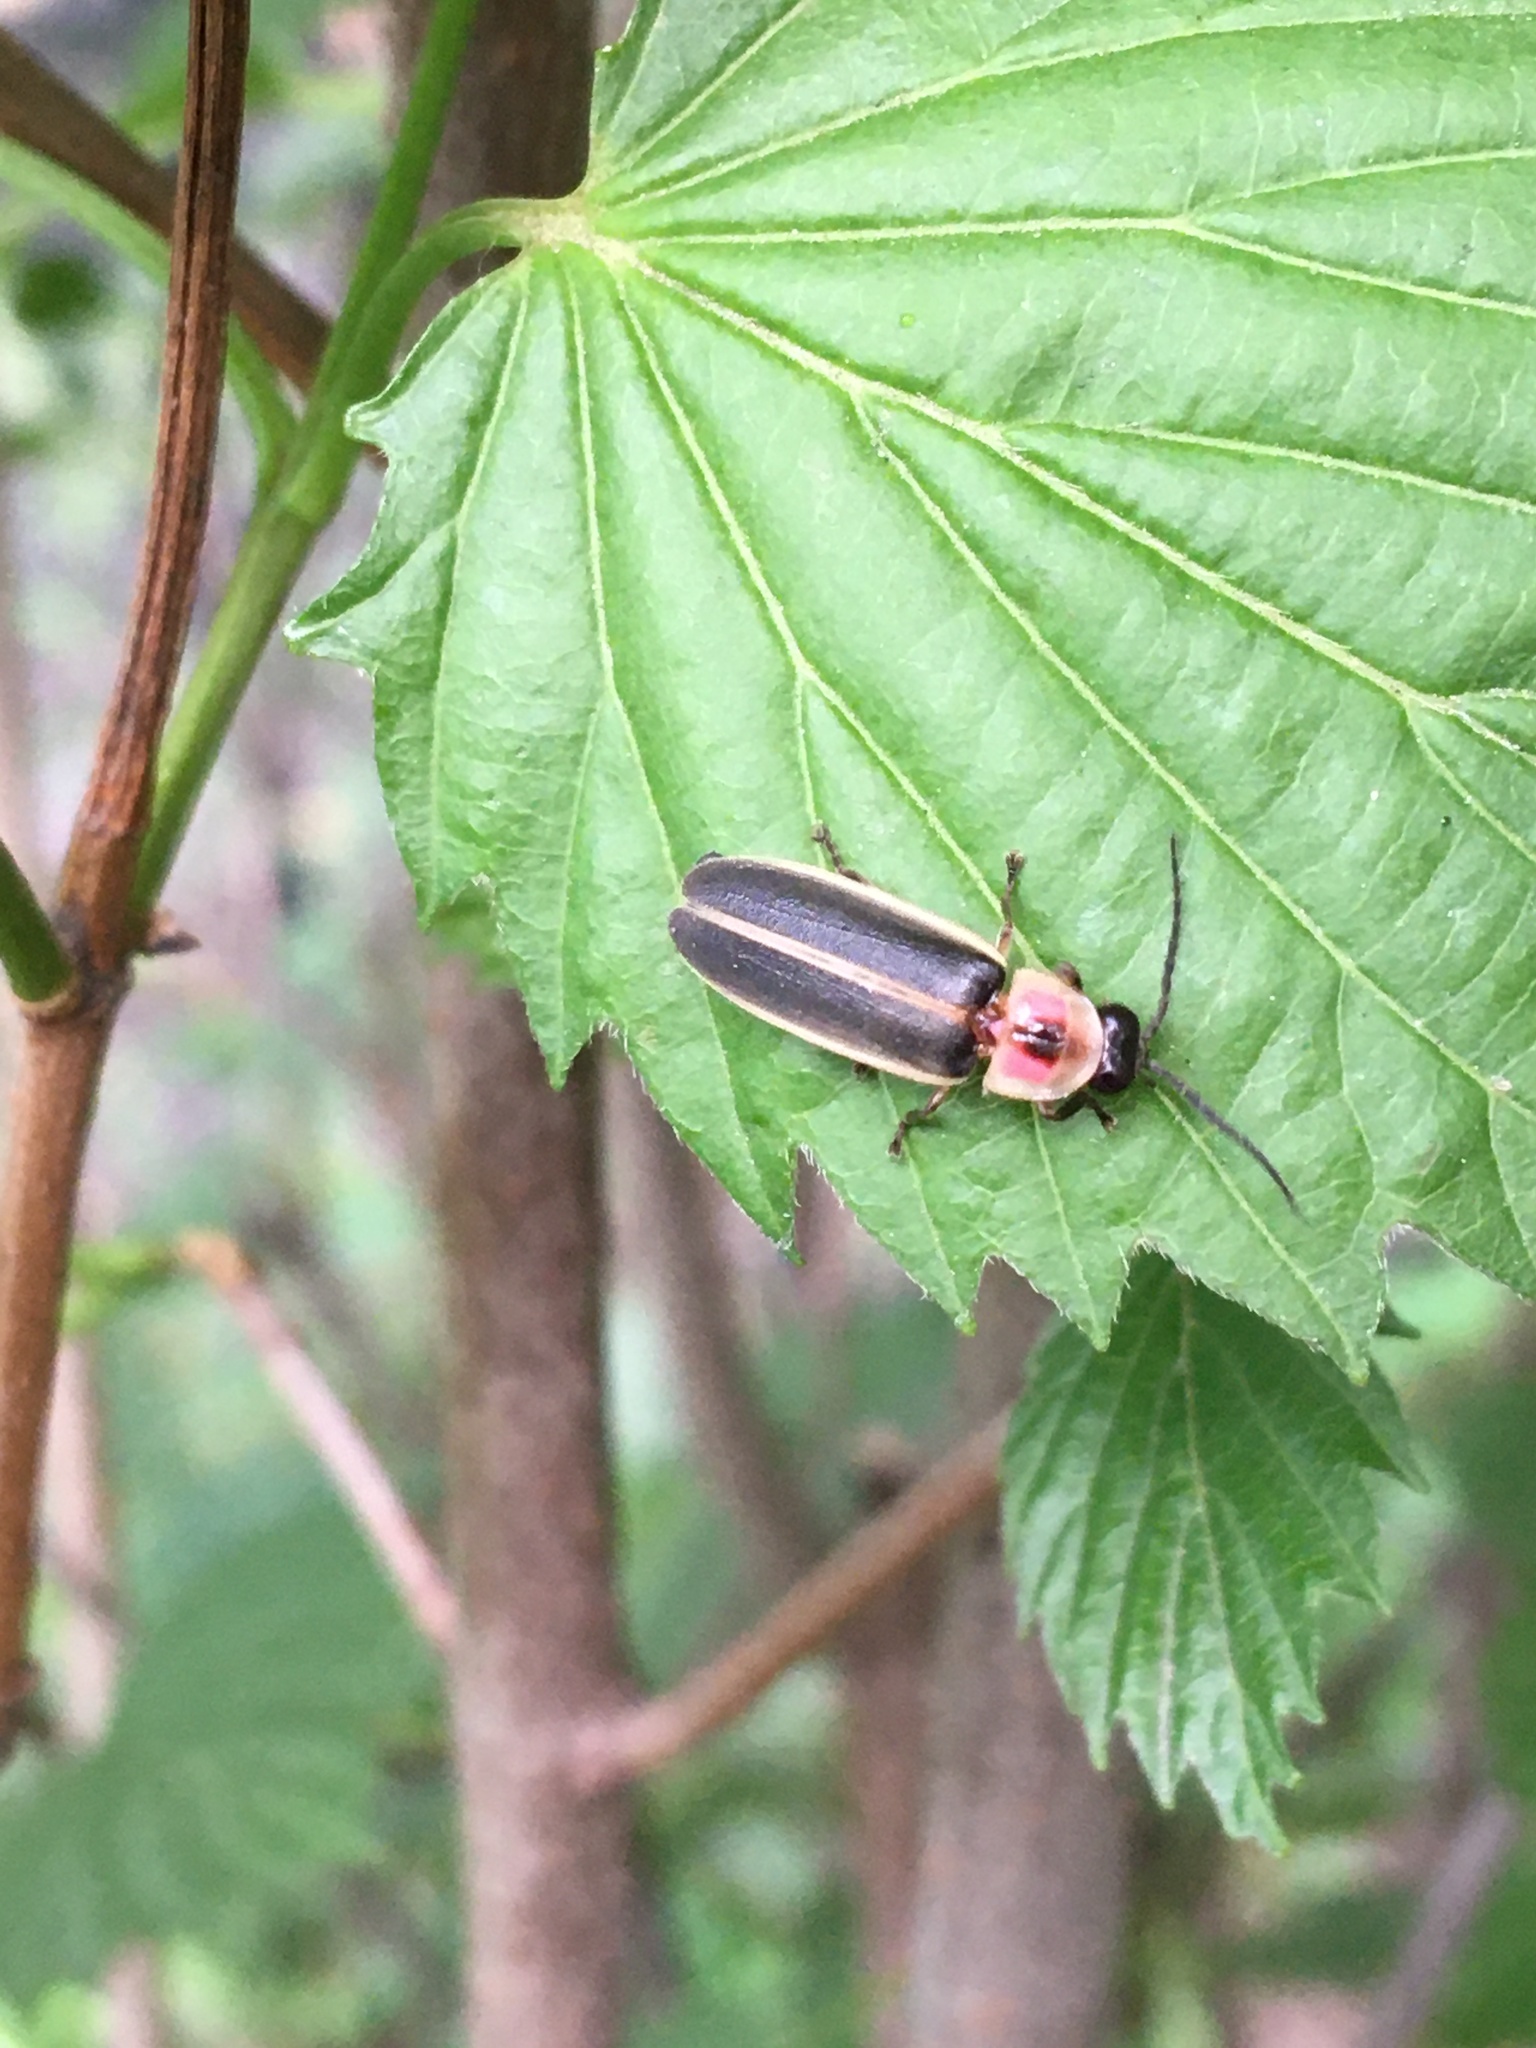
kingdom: Animalia
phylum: Arthropoda
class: Insecta
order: Coleoptera
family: Lampyridae
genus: Photinus
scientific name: Photinus pyralis
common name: Big dipper firefly
